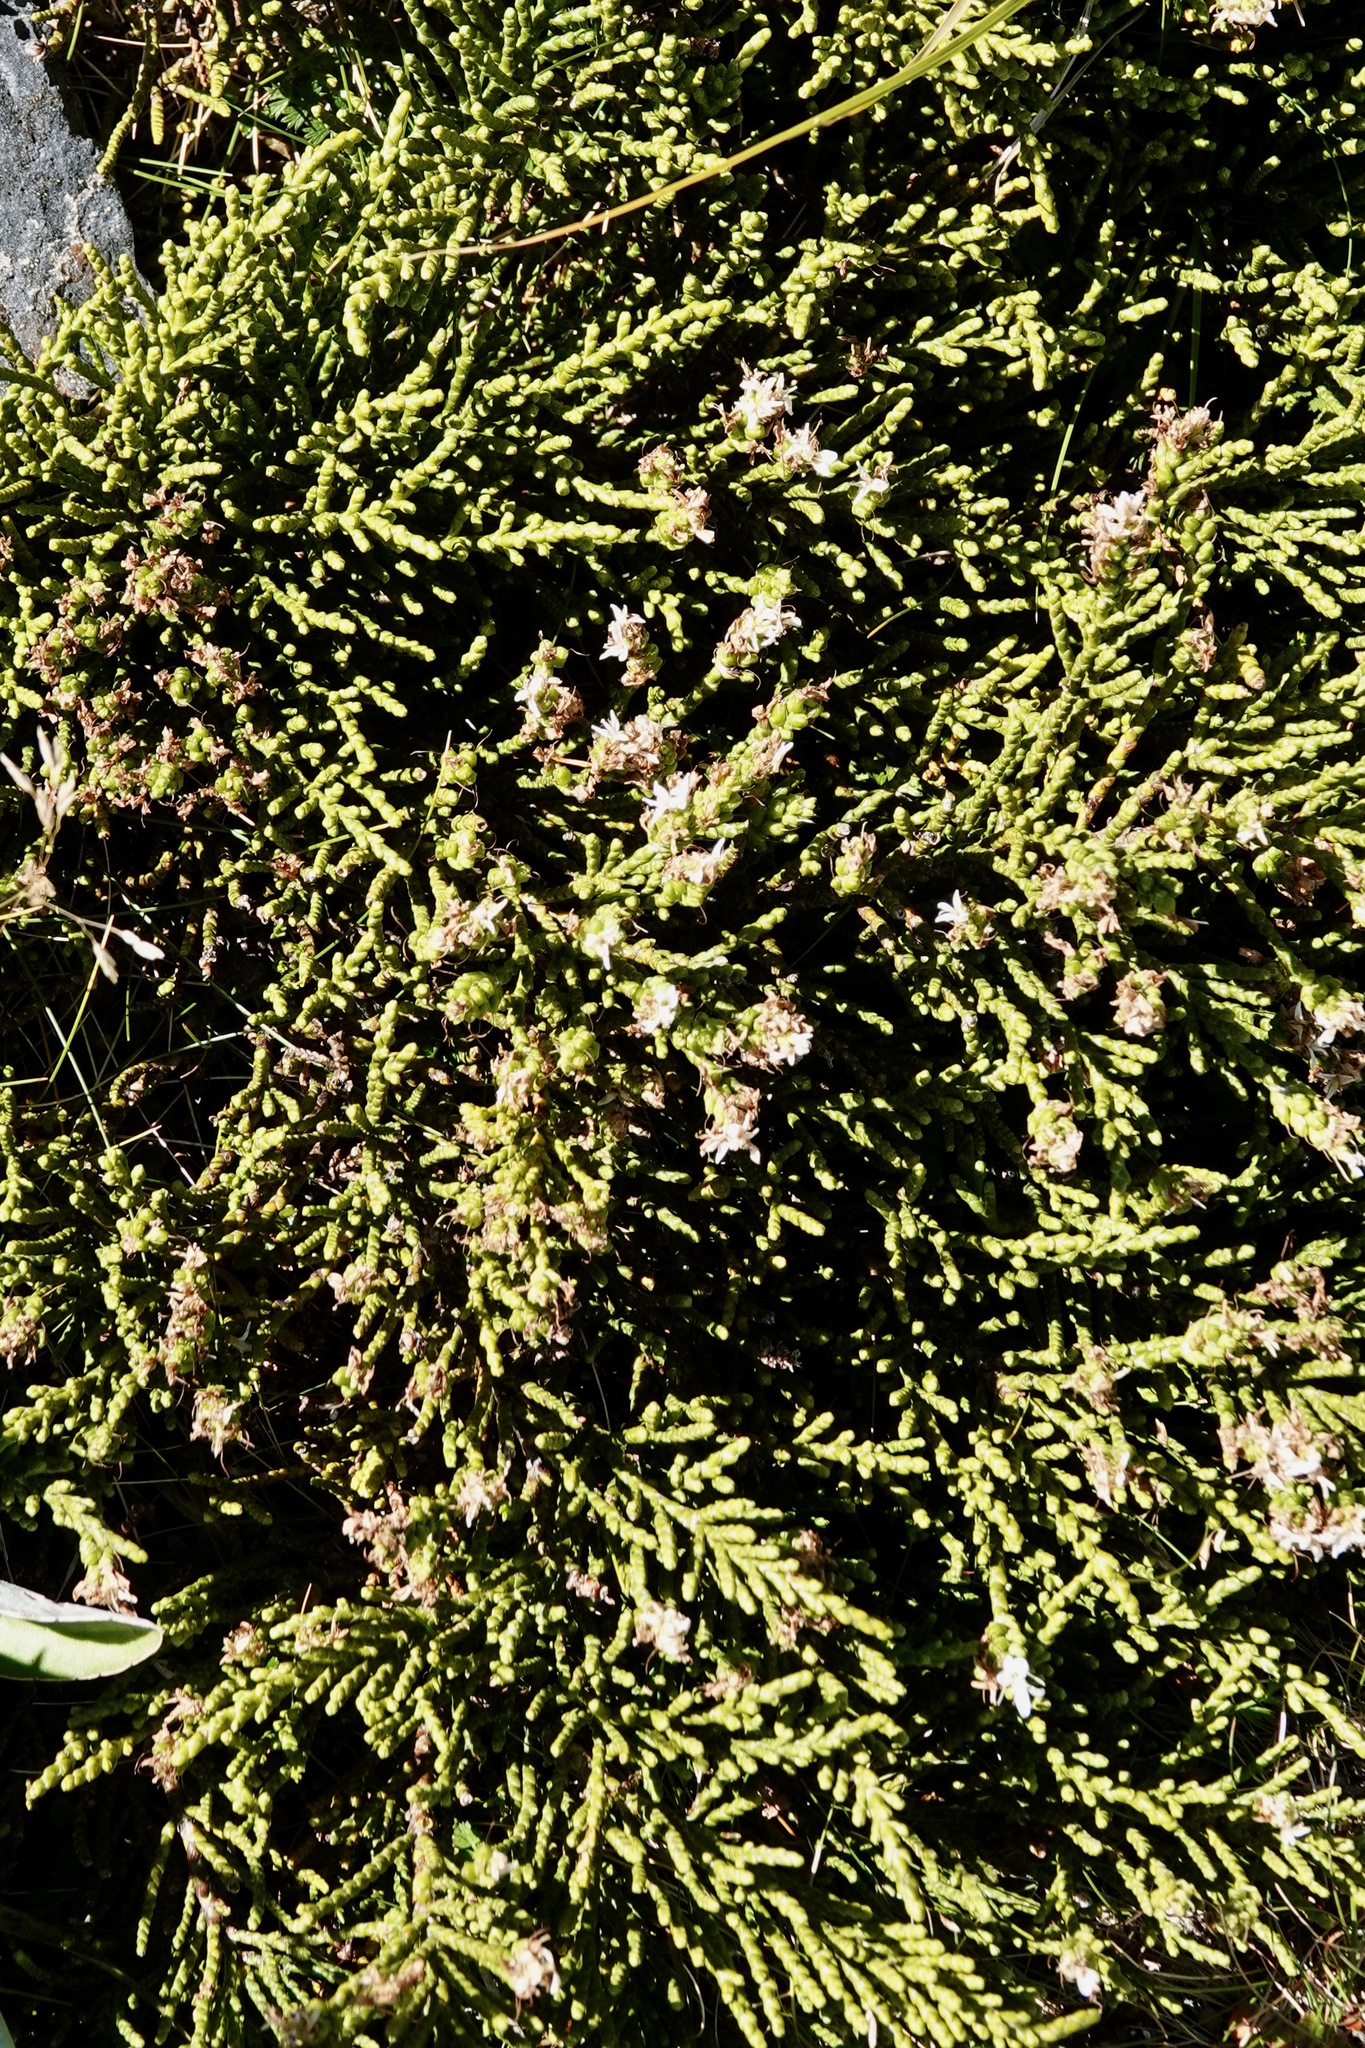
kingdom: Plantae
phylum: Tracheophyta
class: Magnoliopsida
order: Lamiales
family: Plantaginaceae
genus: Veronica
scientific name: Veronica hectorii
